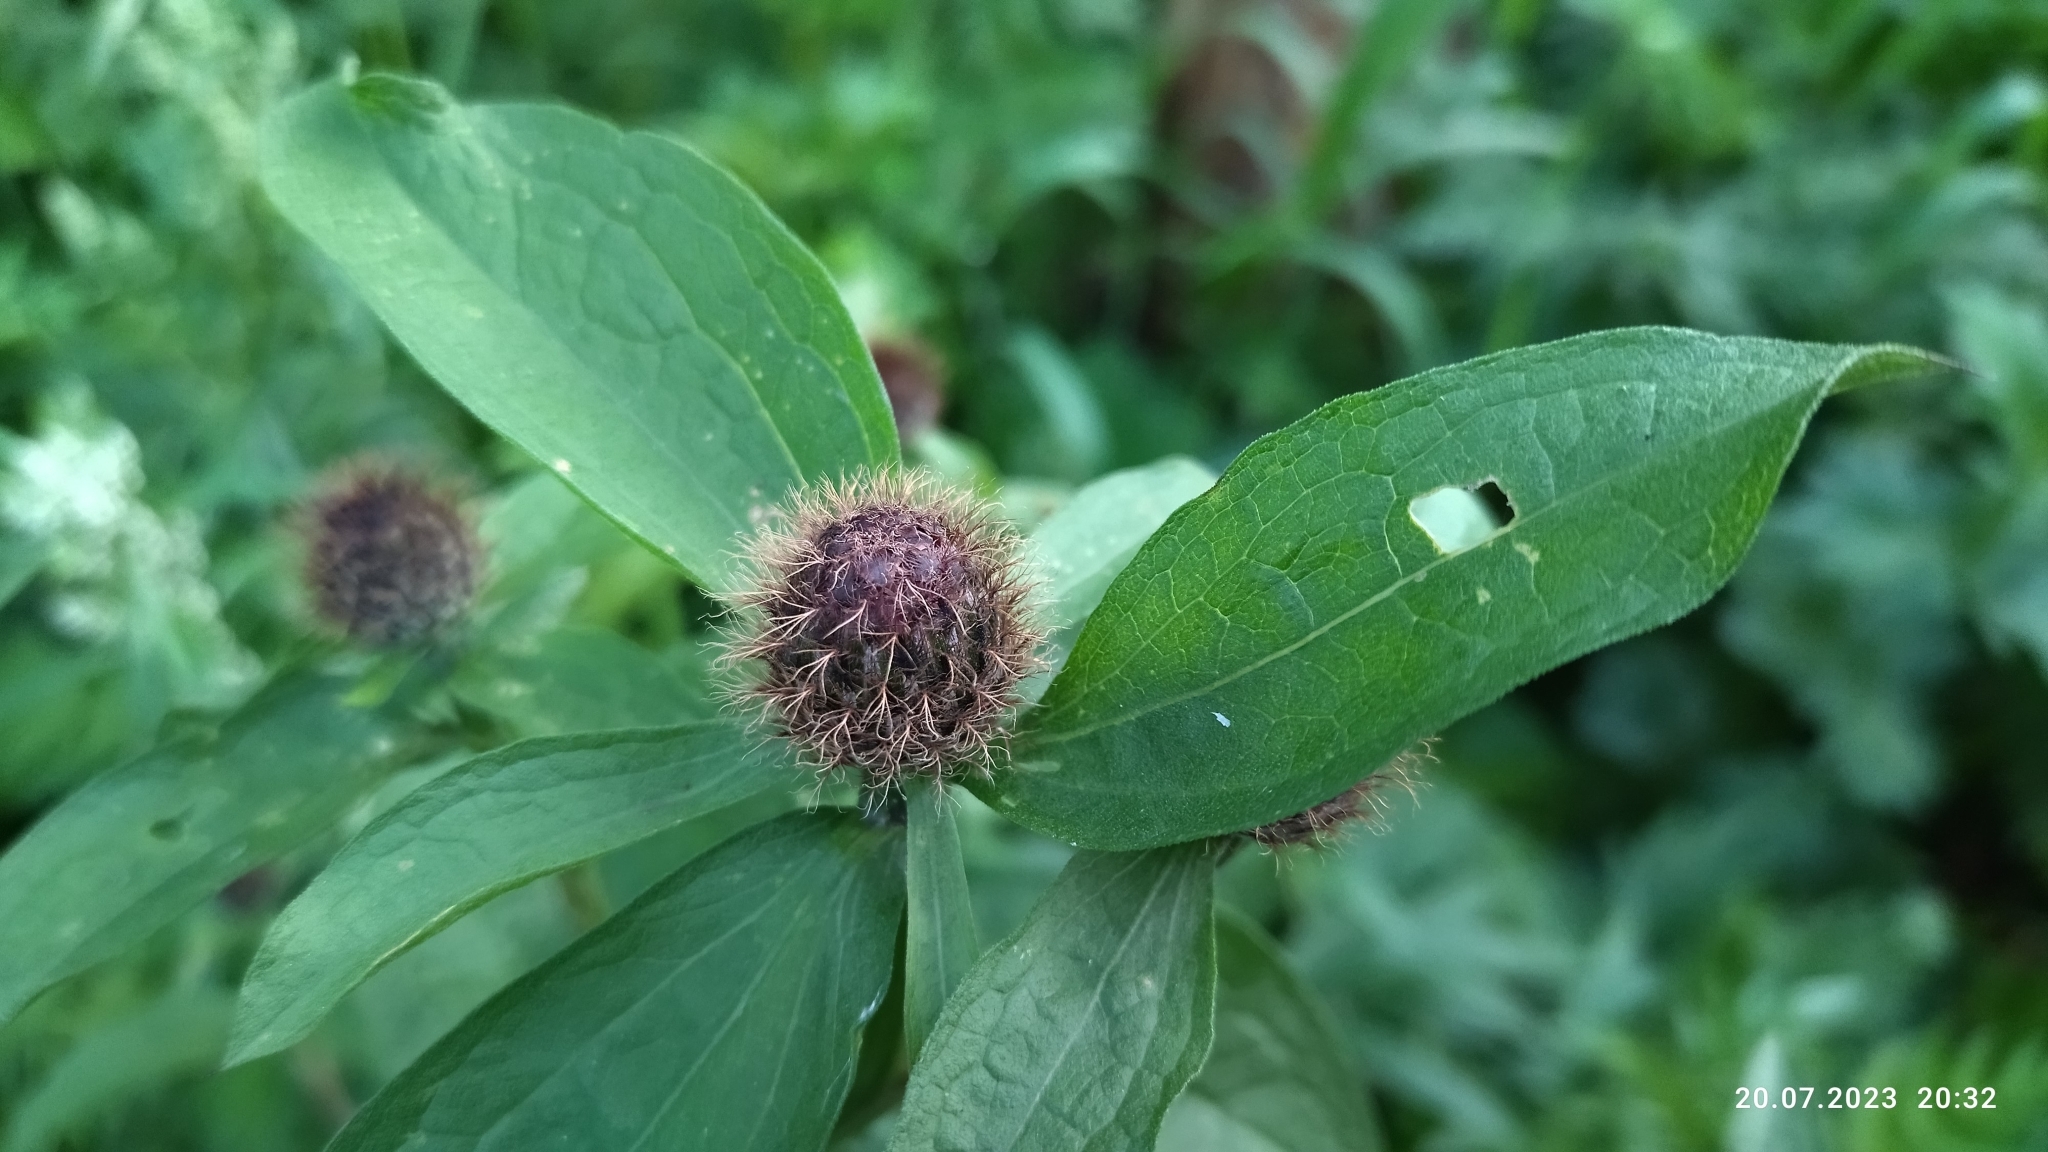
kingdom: Plantae
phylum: Tracheophyta
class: Magnoliopsida
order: Asterales
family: Asteraceae
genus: Centaurea
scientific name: Centaurea phrygia
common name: Wig knapweed
